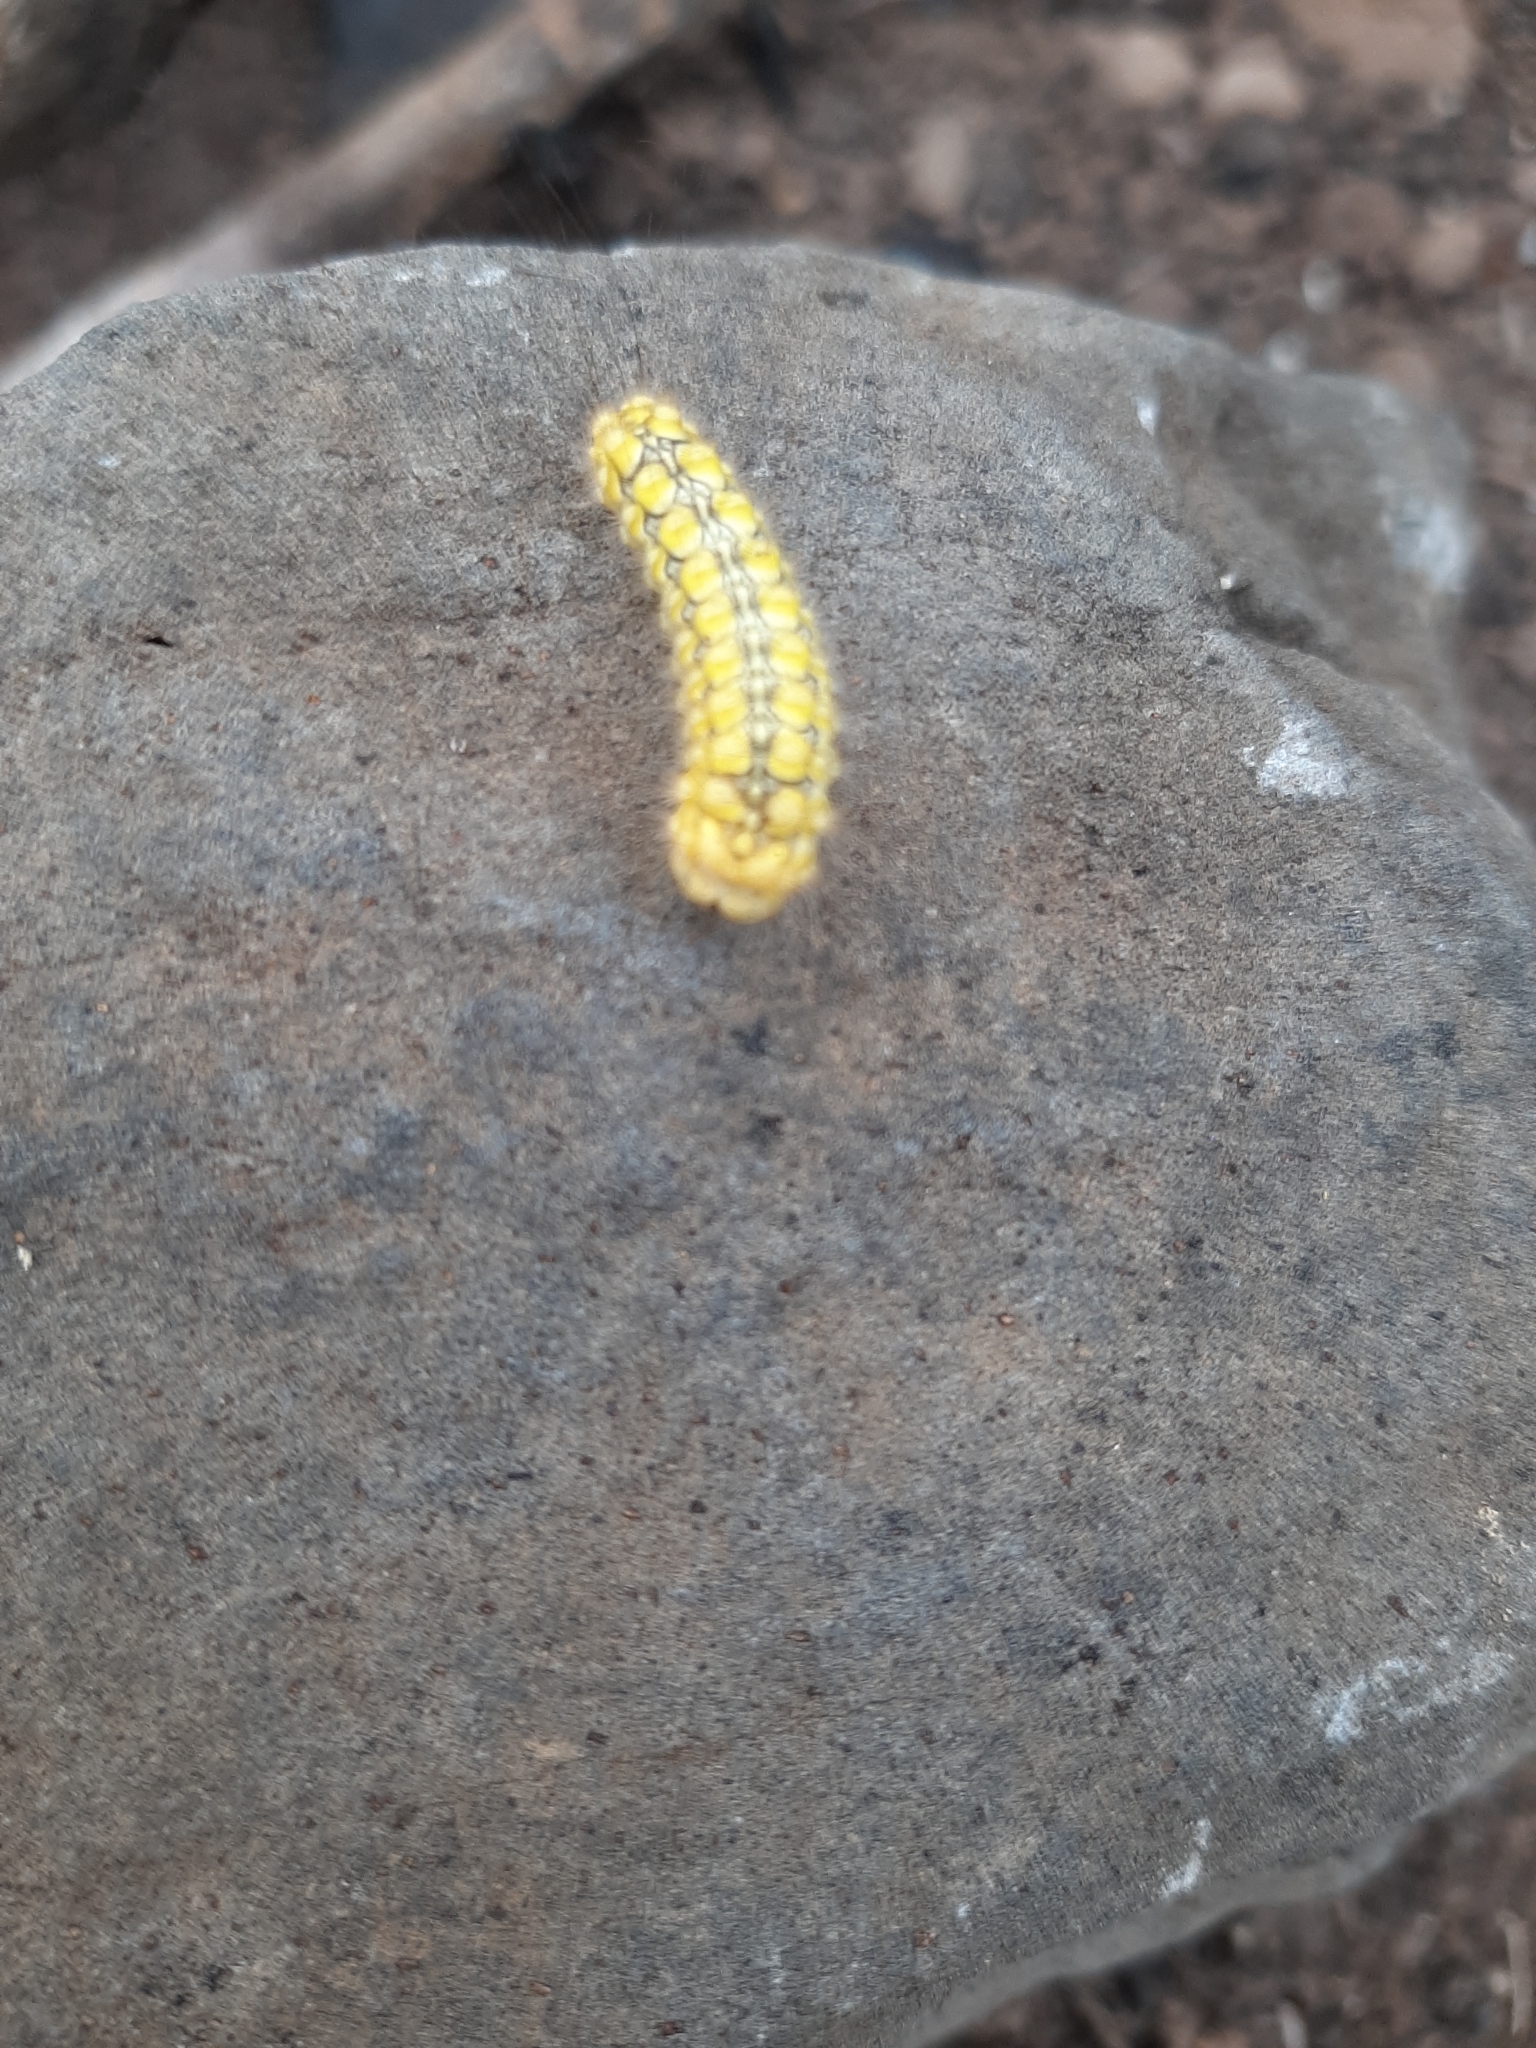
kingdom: Animalia
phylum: Arthropoda
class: Insecta
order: Lepidoptera
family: Megalopygidae
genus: Norape
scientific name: Norape tener
